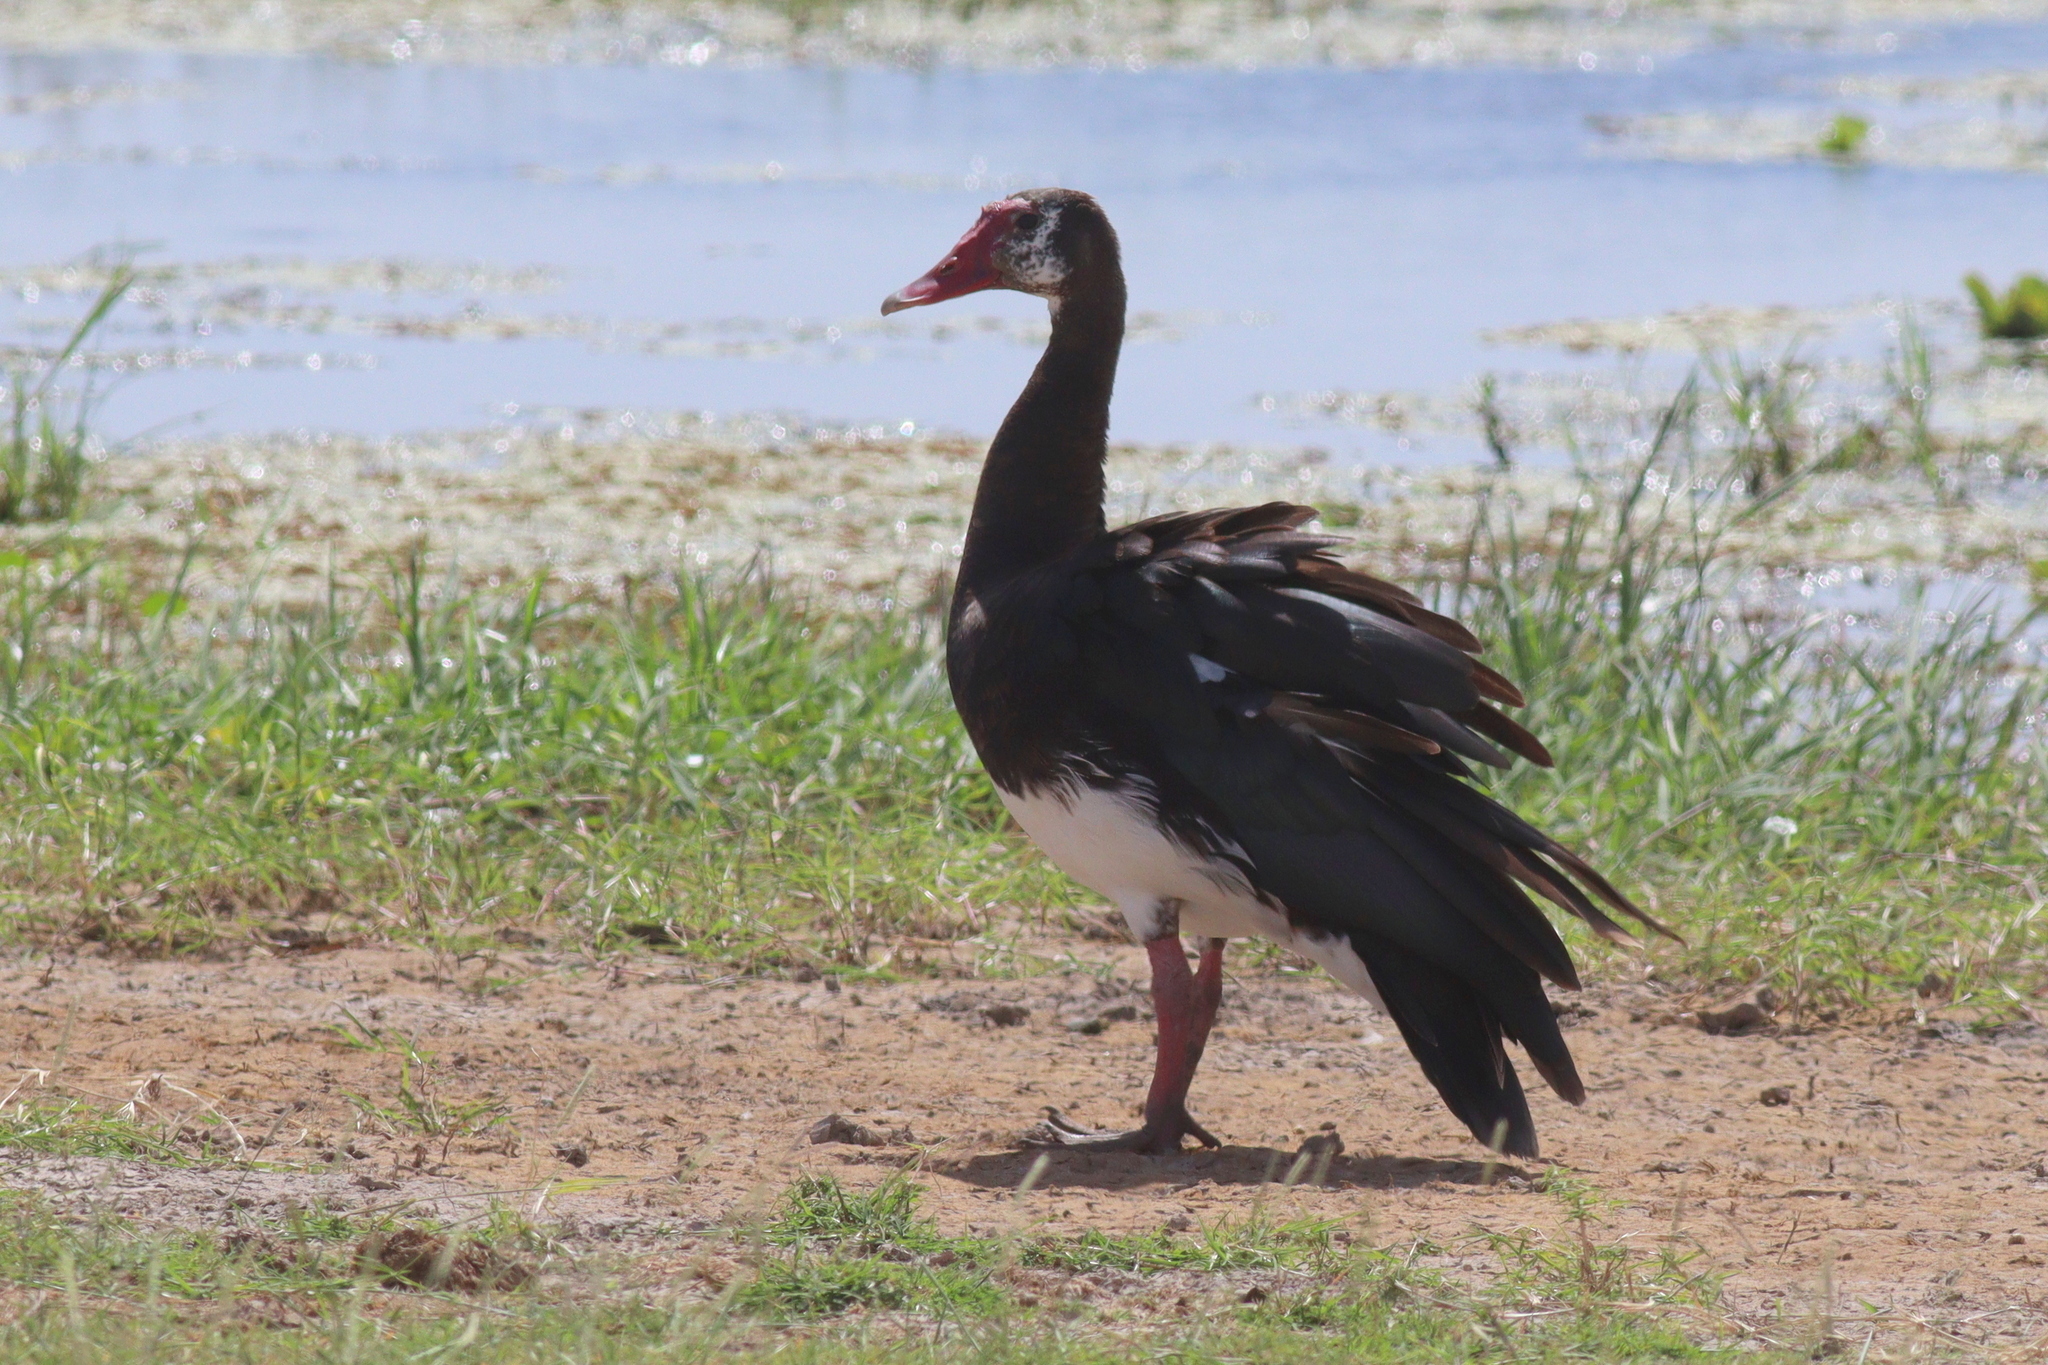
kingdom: Animalia
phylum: Chordata
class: Aves
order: Anseriformes
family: Anatidae
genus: Plectropterus
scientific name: Plectropterus gambensis
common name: Spur-winged goose
